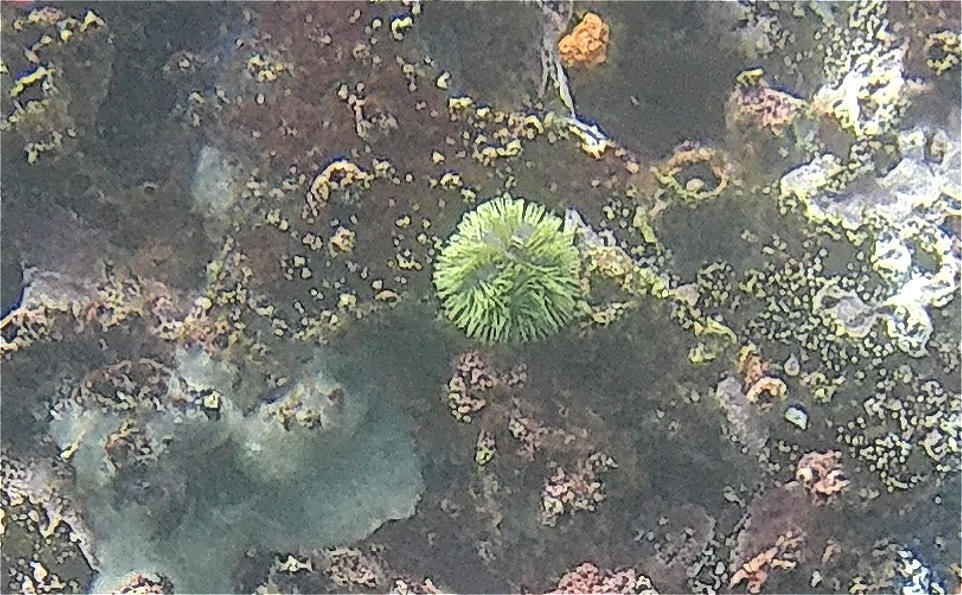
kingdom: Animalia
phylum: Echinodermata
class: Echinoidea
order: Camarodonta
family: Toxopneustidae
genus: Lytechinus
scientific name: Lytechinus semituberculatus
